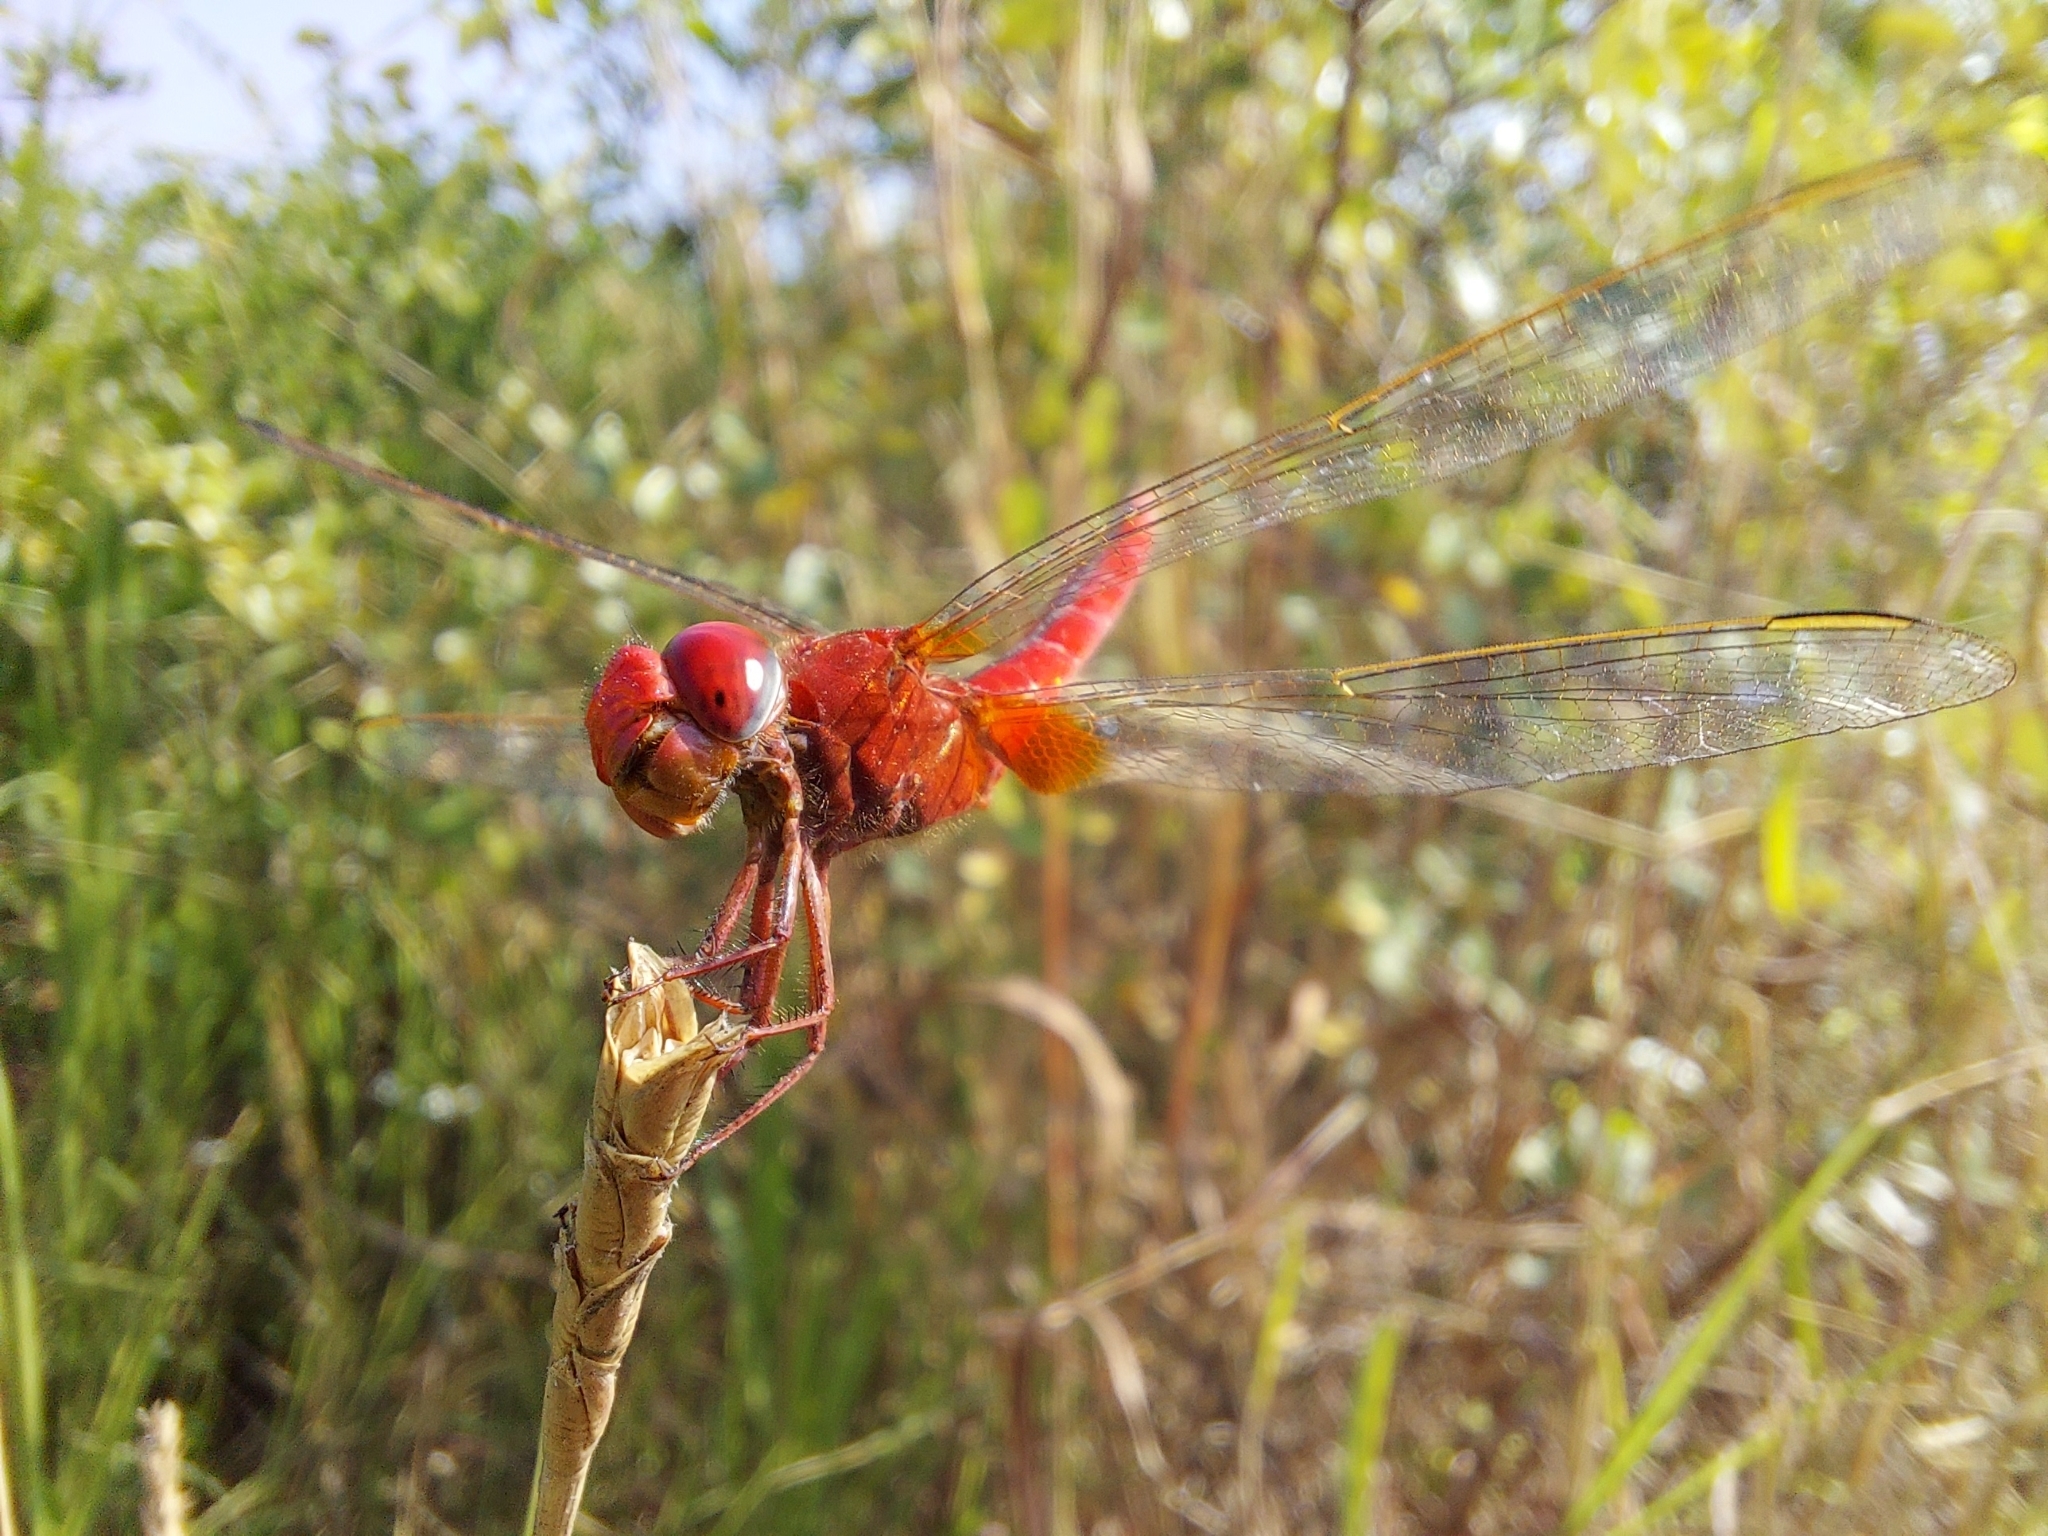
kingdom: Animalia
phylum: Arthropoda
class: Insecta
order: Odonata
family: Libellulidae
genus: Crocothemis
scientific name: Crocothemis servilia
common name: Scarlet skimmer
